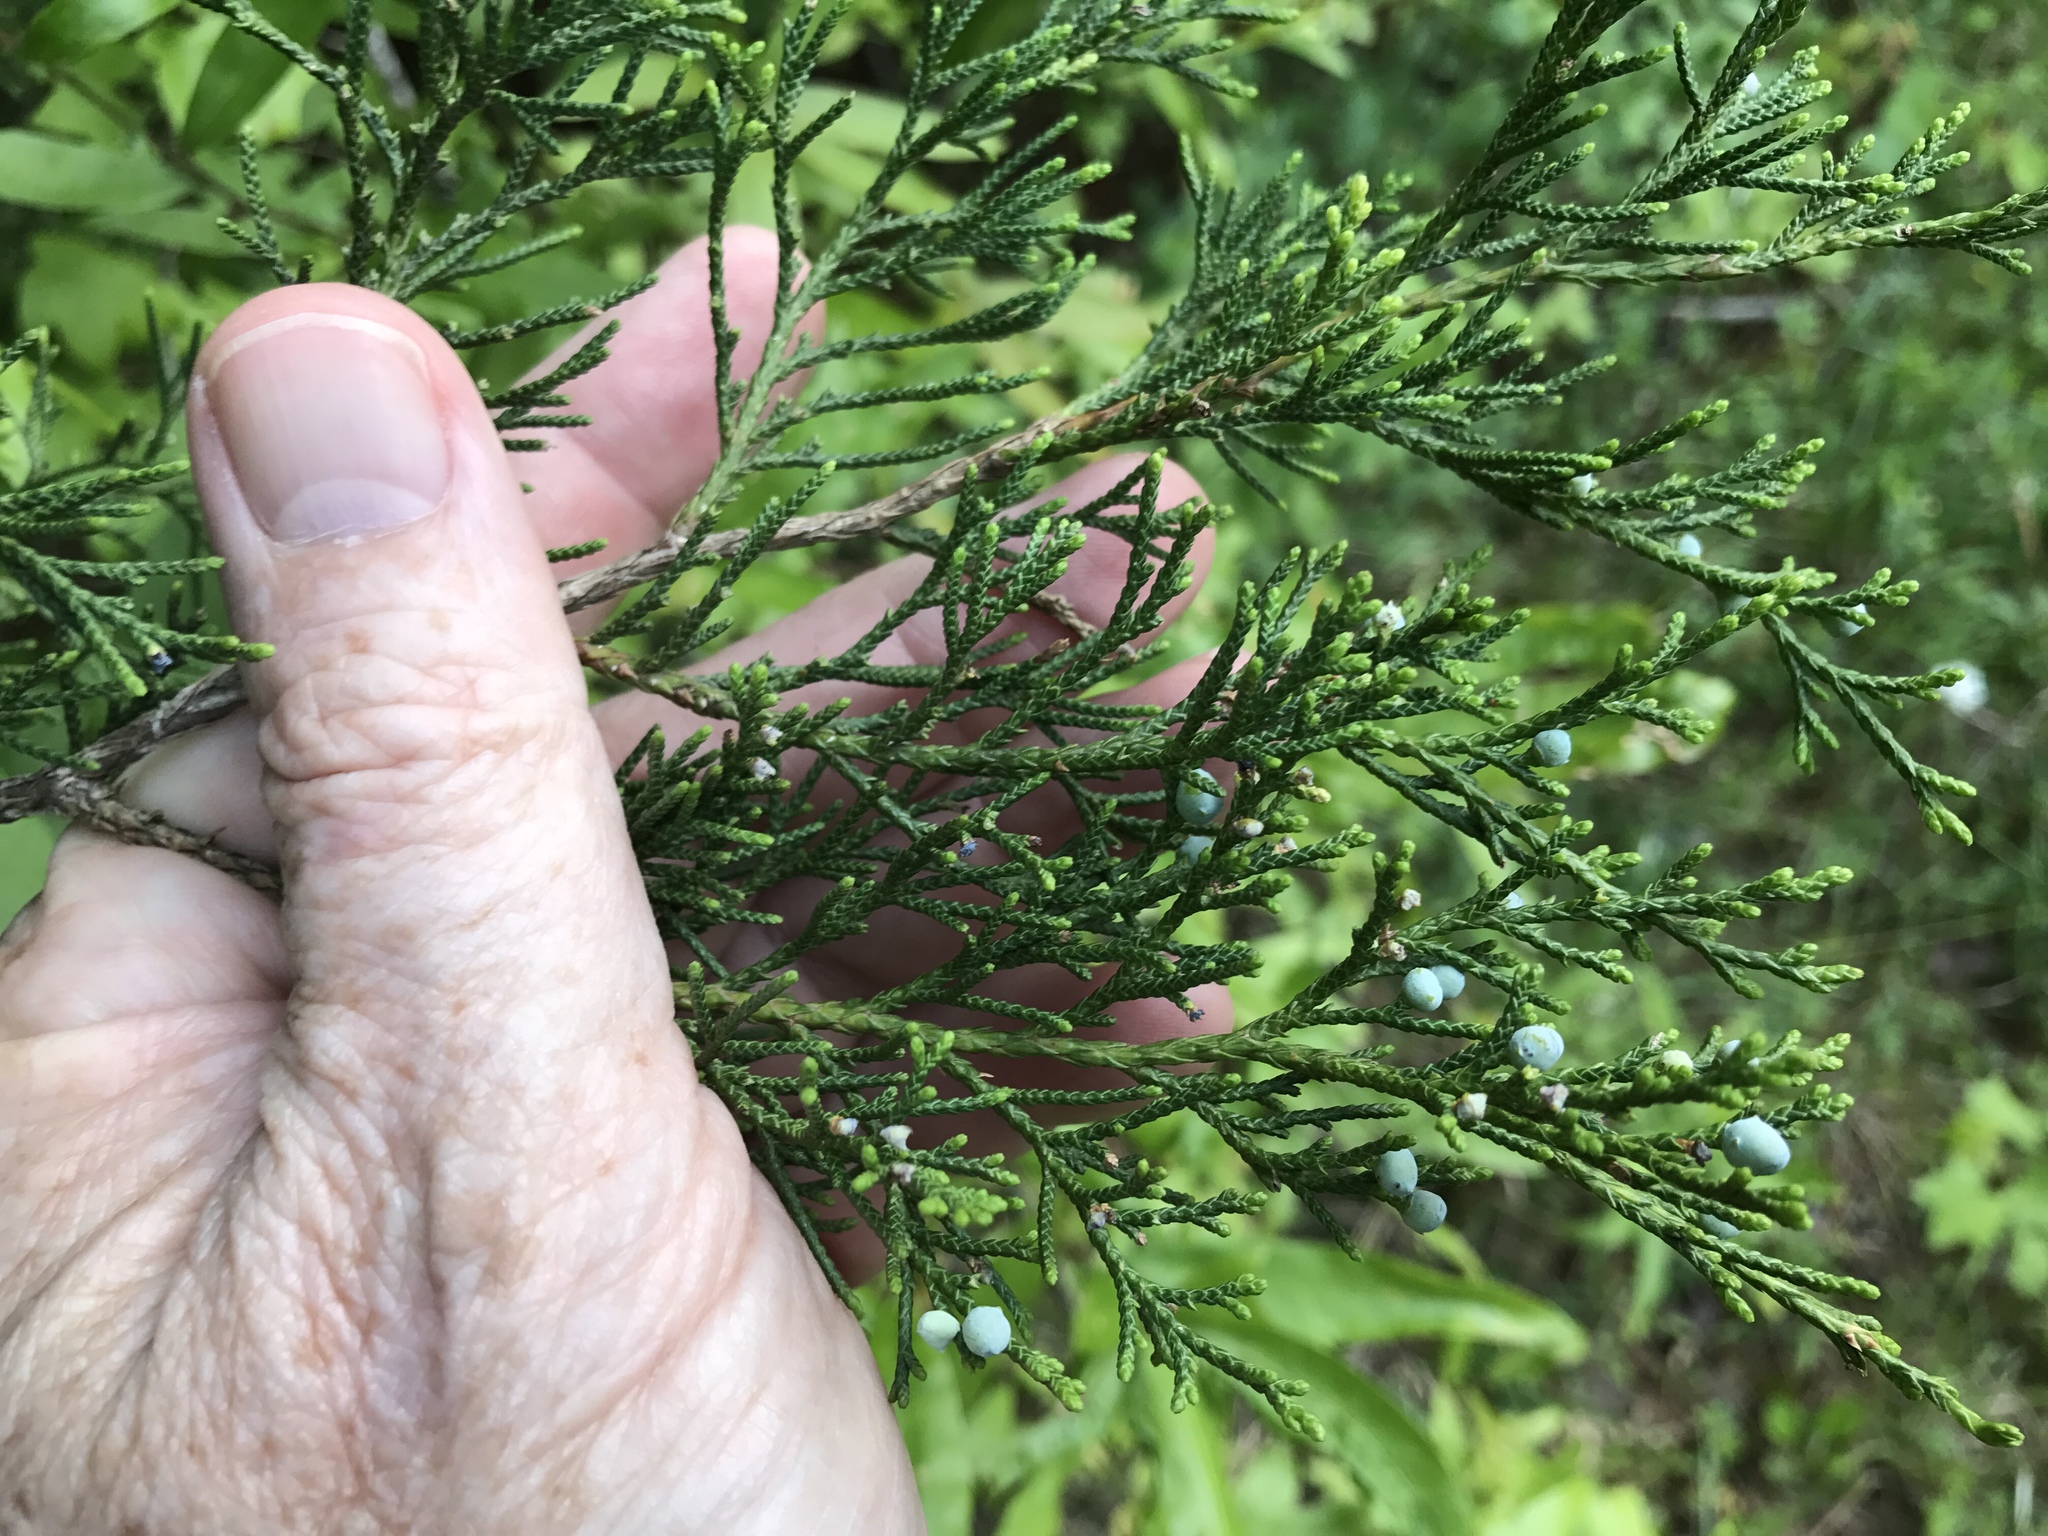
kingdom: Plantae
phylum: Tracheophyta
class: Pinopsida
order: Pinales
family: Cupressaceae
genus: Juniperus
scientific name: Juniperus virginiana
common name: Red juniper
